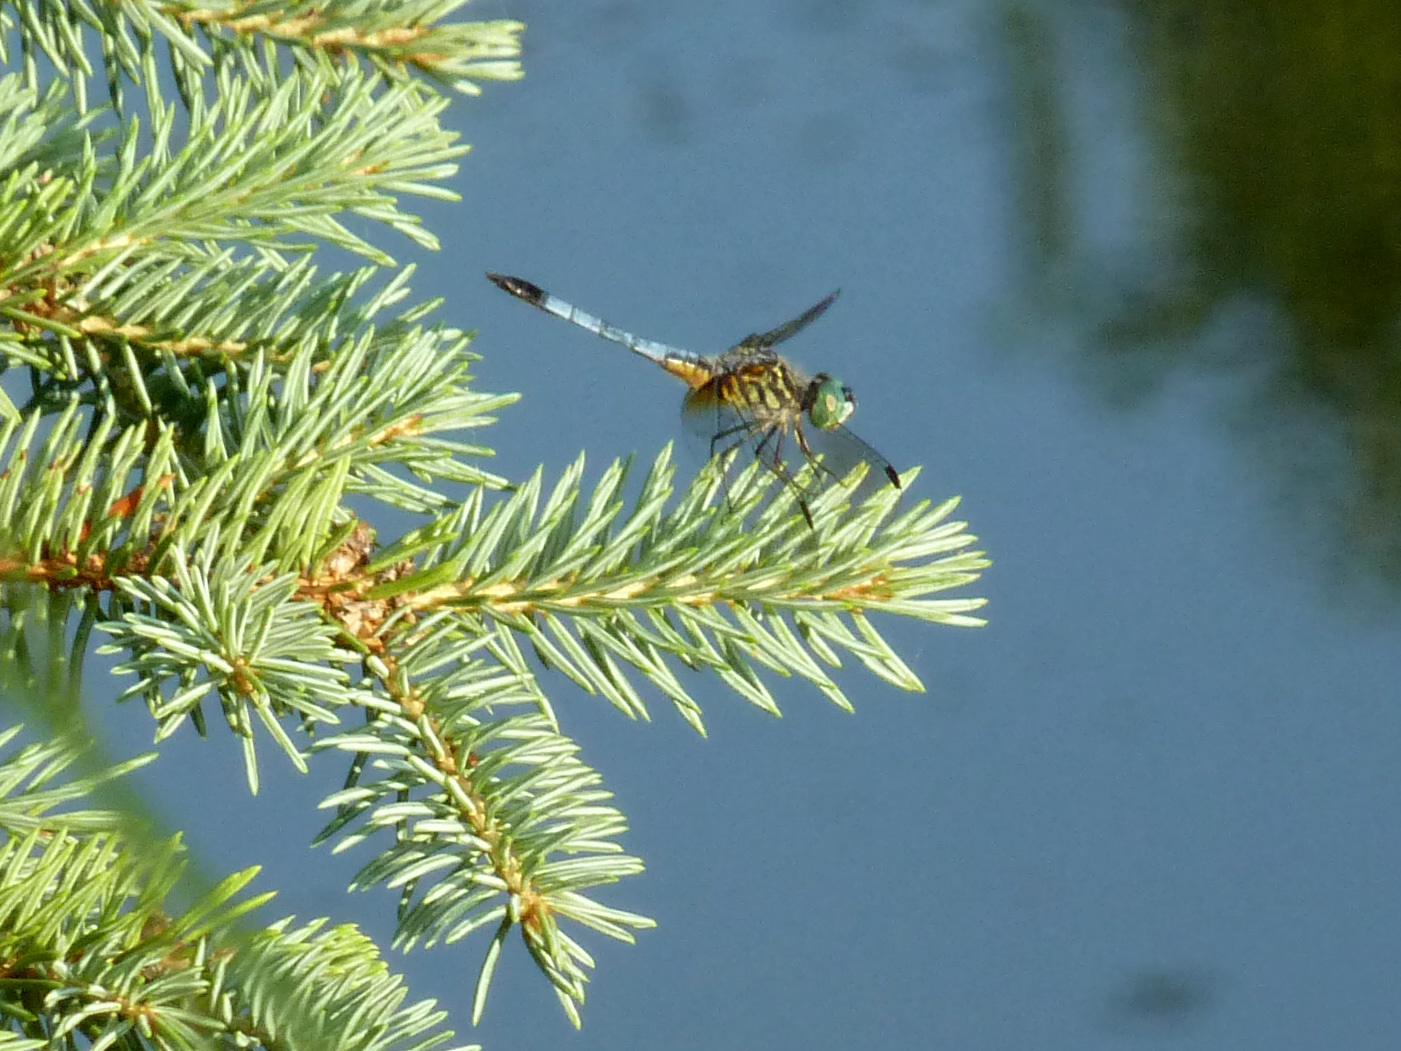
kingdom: Animalia
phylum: Arthropoda
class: Insecta
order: Odonata
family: Libellulidae
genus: Pachydiplax
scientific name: Pachydiplax longipennis
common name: Blue dasher
